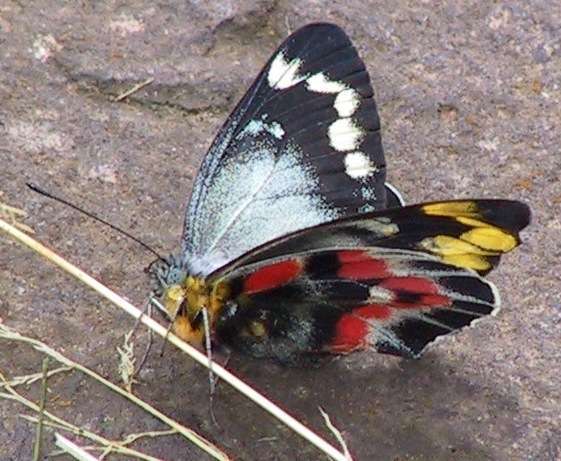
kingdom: Animalia
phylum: Arthropoda
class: Insecta
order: Lepidoptera
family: Pieridae
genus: Delias
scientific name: Delias harpalyce
